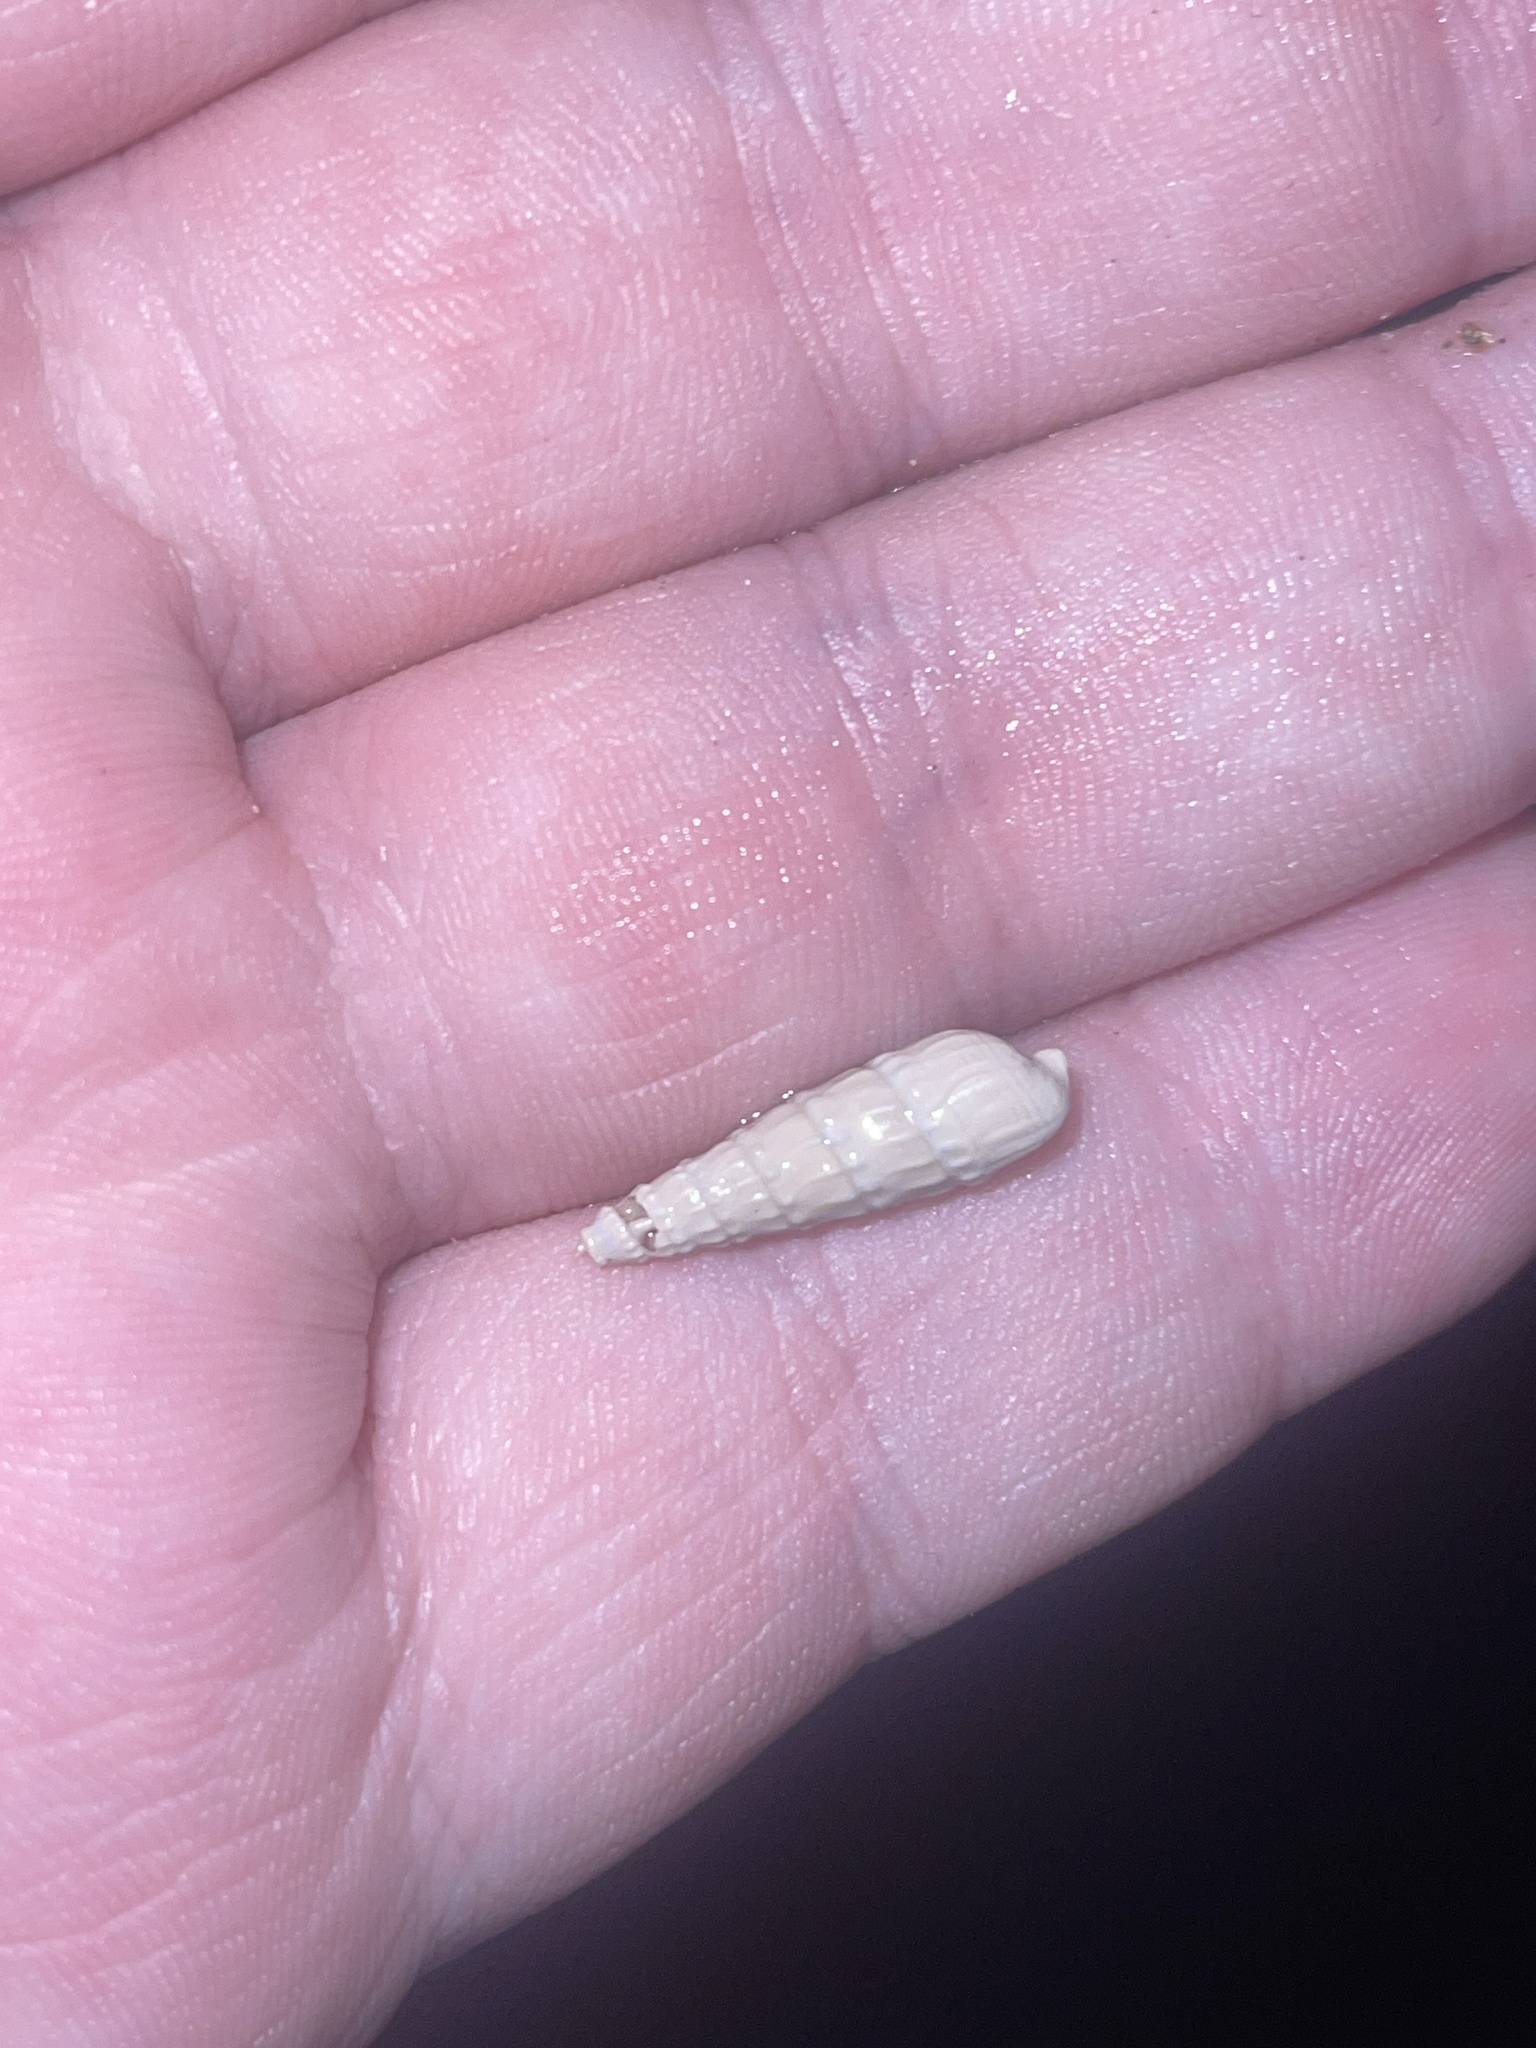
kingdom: Animalia
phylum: Mollusca
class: Gastropoda
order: Neogastropoda
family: Terebridae
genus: Neoterebra
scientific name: Neoterebra dislocata
